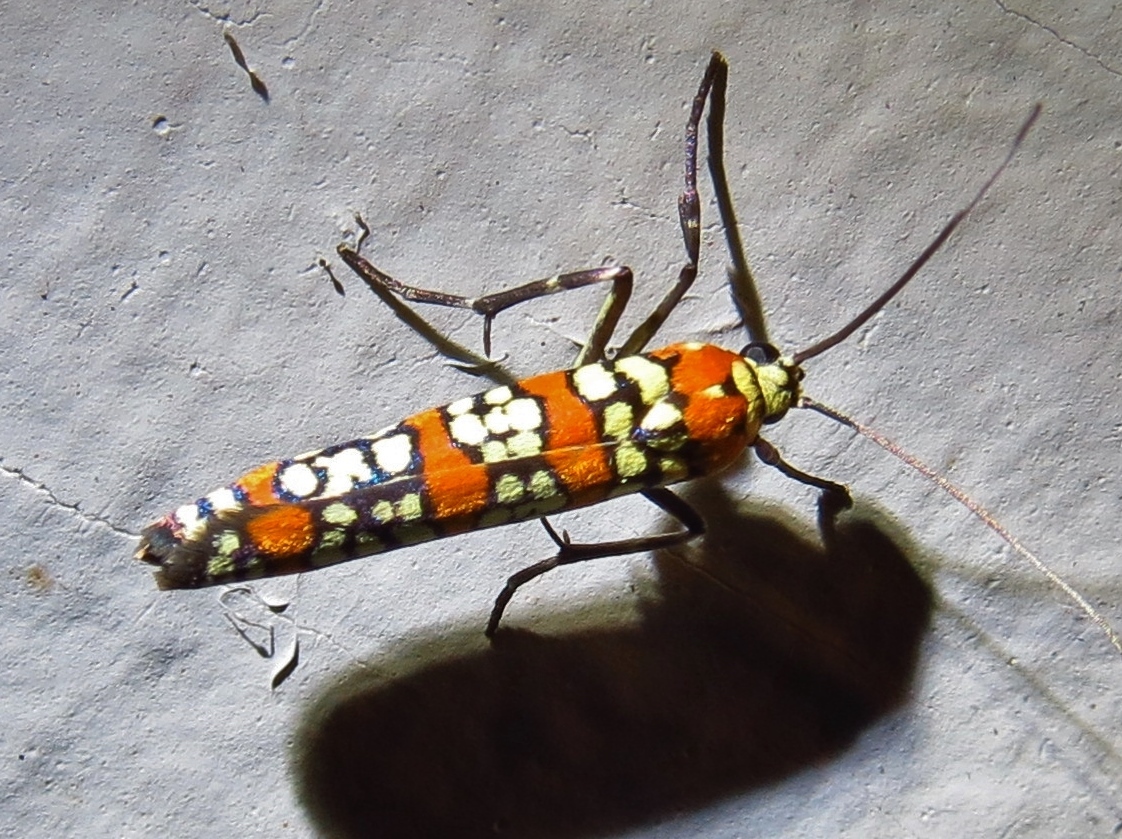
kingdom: Animalia
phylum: Arthropoda
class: Insecta
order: Lepidoptera
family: Attevidae
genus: Atteva
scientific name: Atteva punctella
